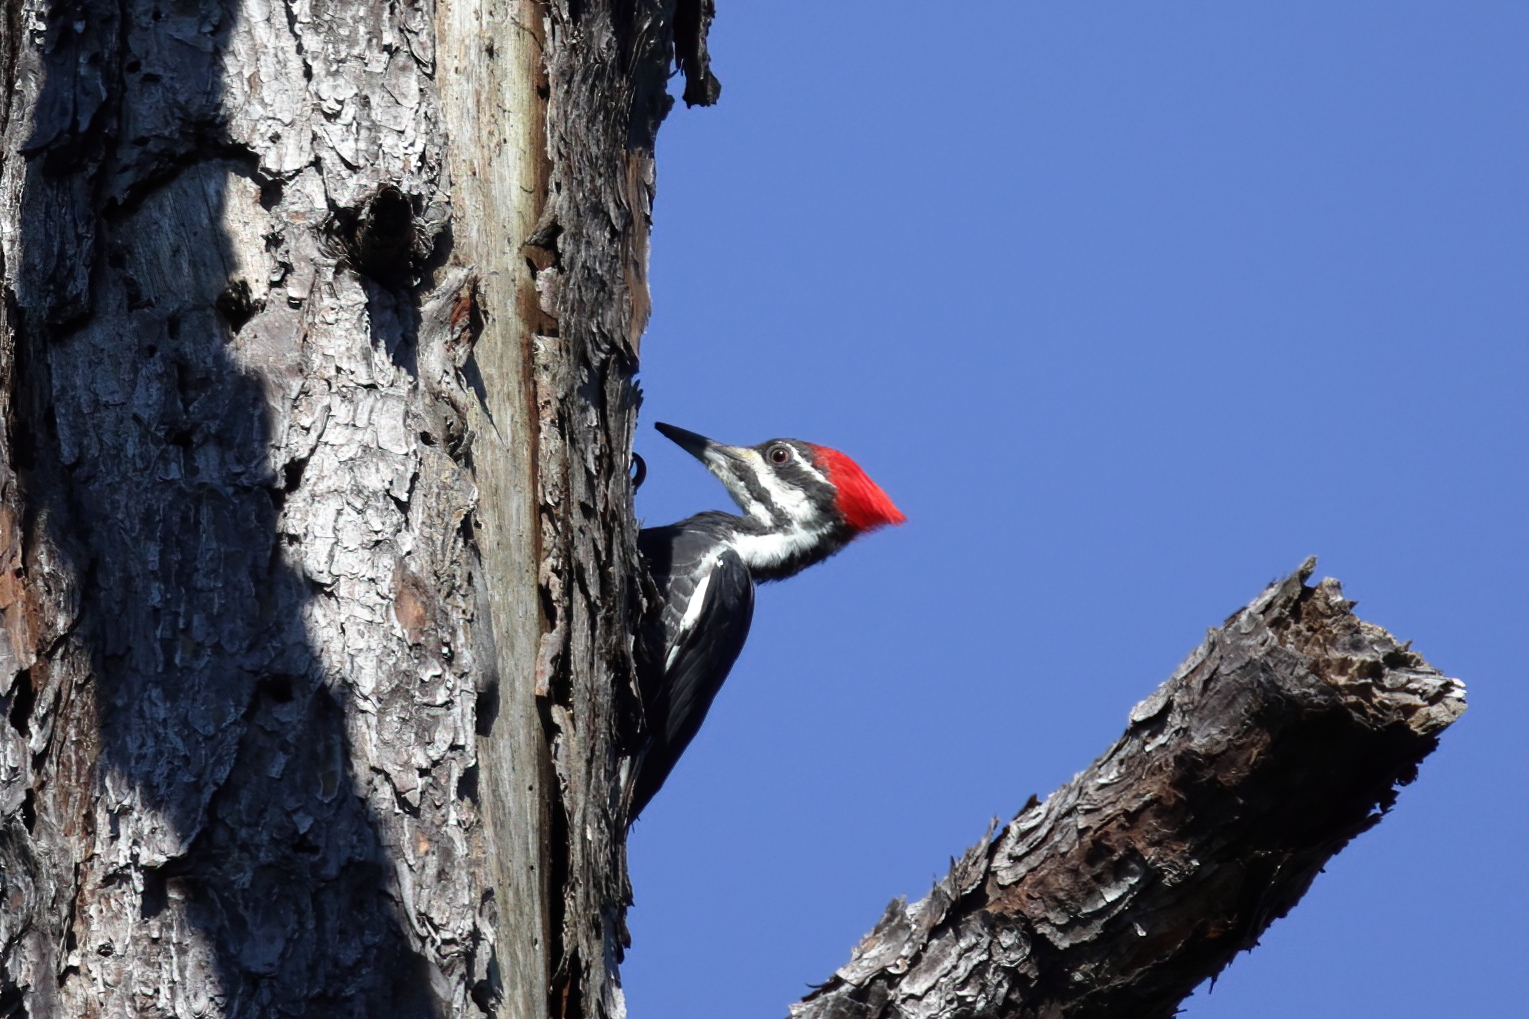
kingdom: Animalia
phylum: Chordata
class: Aves
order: Piciformes
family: Picidae
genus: Dryocopus
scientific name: Dryocopus pileatus
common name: Pileated woodpecker
